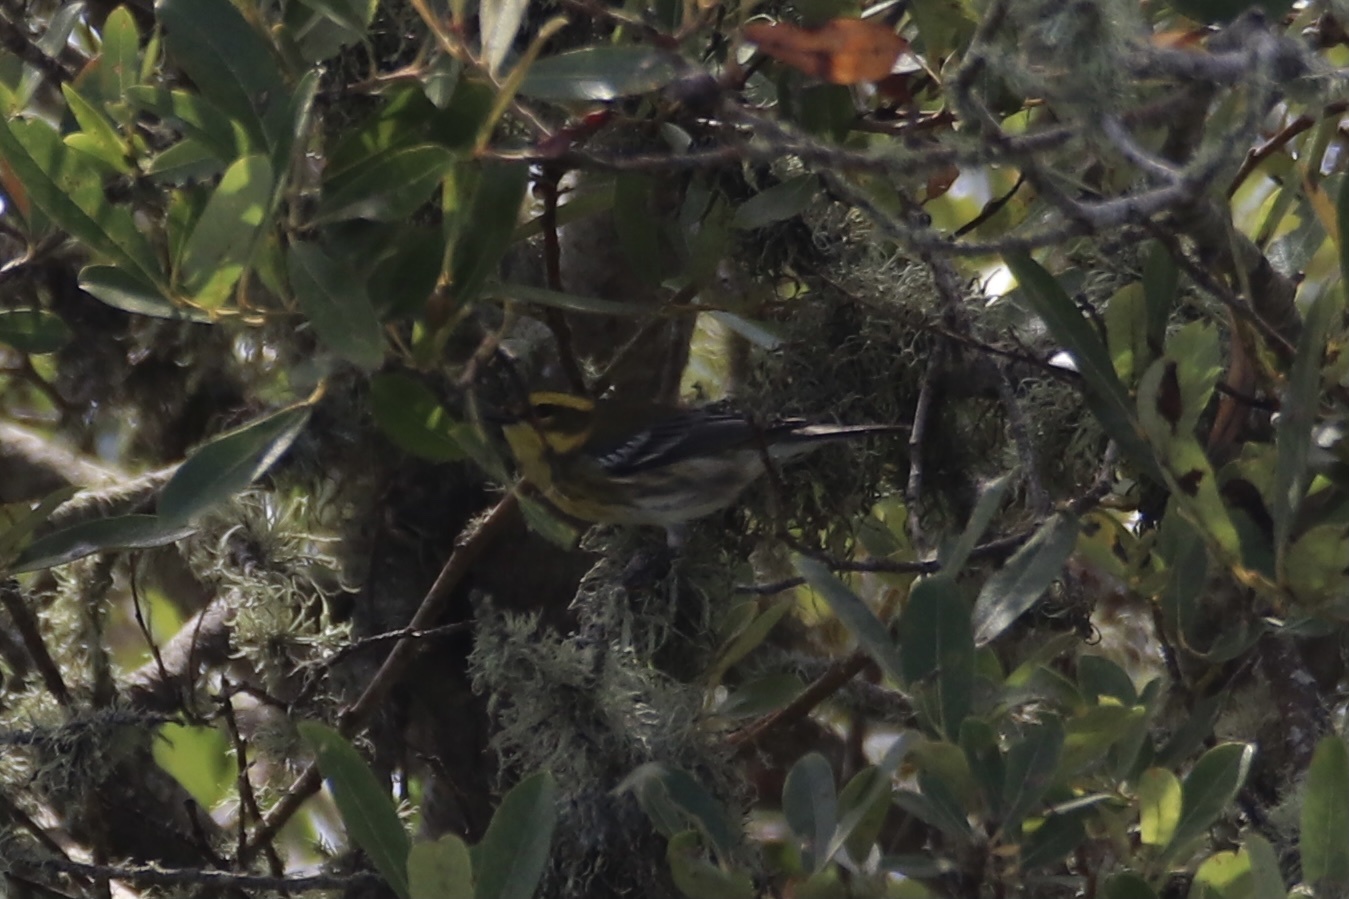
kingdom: Animalia
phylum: Chordata
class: Aves
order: Passeriformes
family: Parulidae
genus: Setophaga
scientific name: Setophaga townsendi
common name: Townsend's warbler
